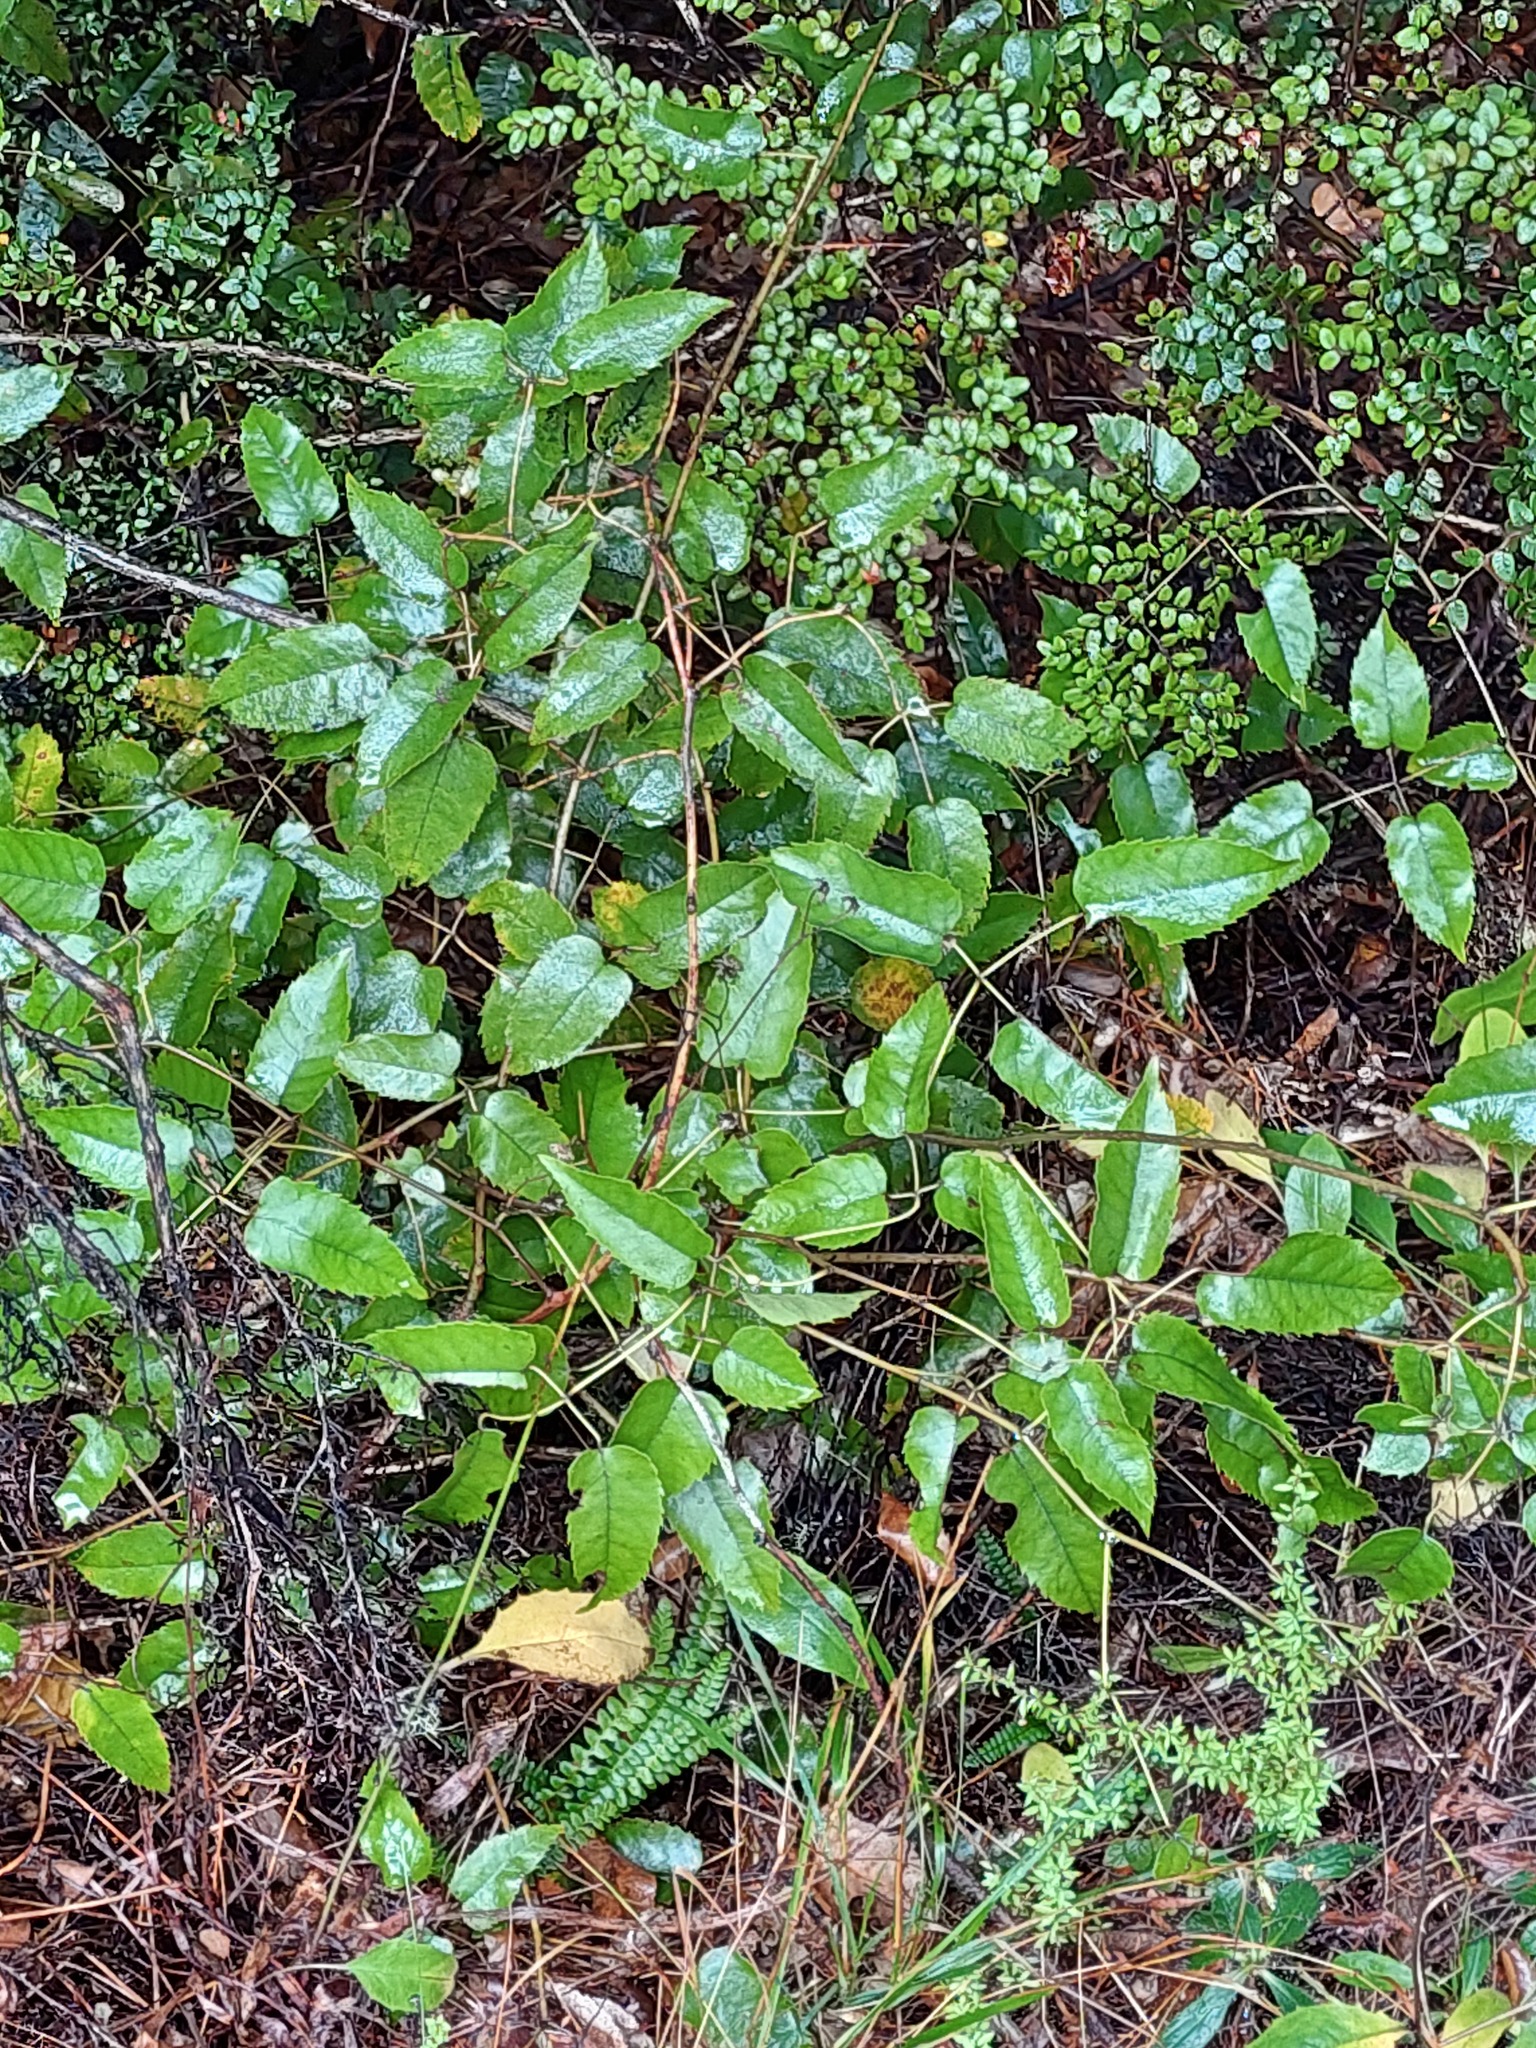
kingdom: Plantae
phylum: Tracheophyta
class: Magnoliopsida
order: Rosales
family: Rosaceae
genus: Rubus
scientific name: Rubus cissoides
